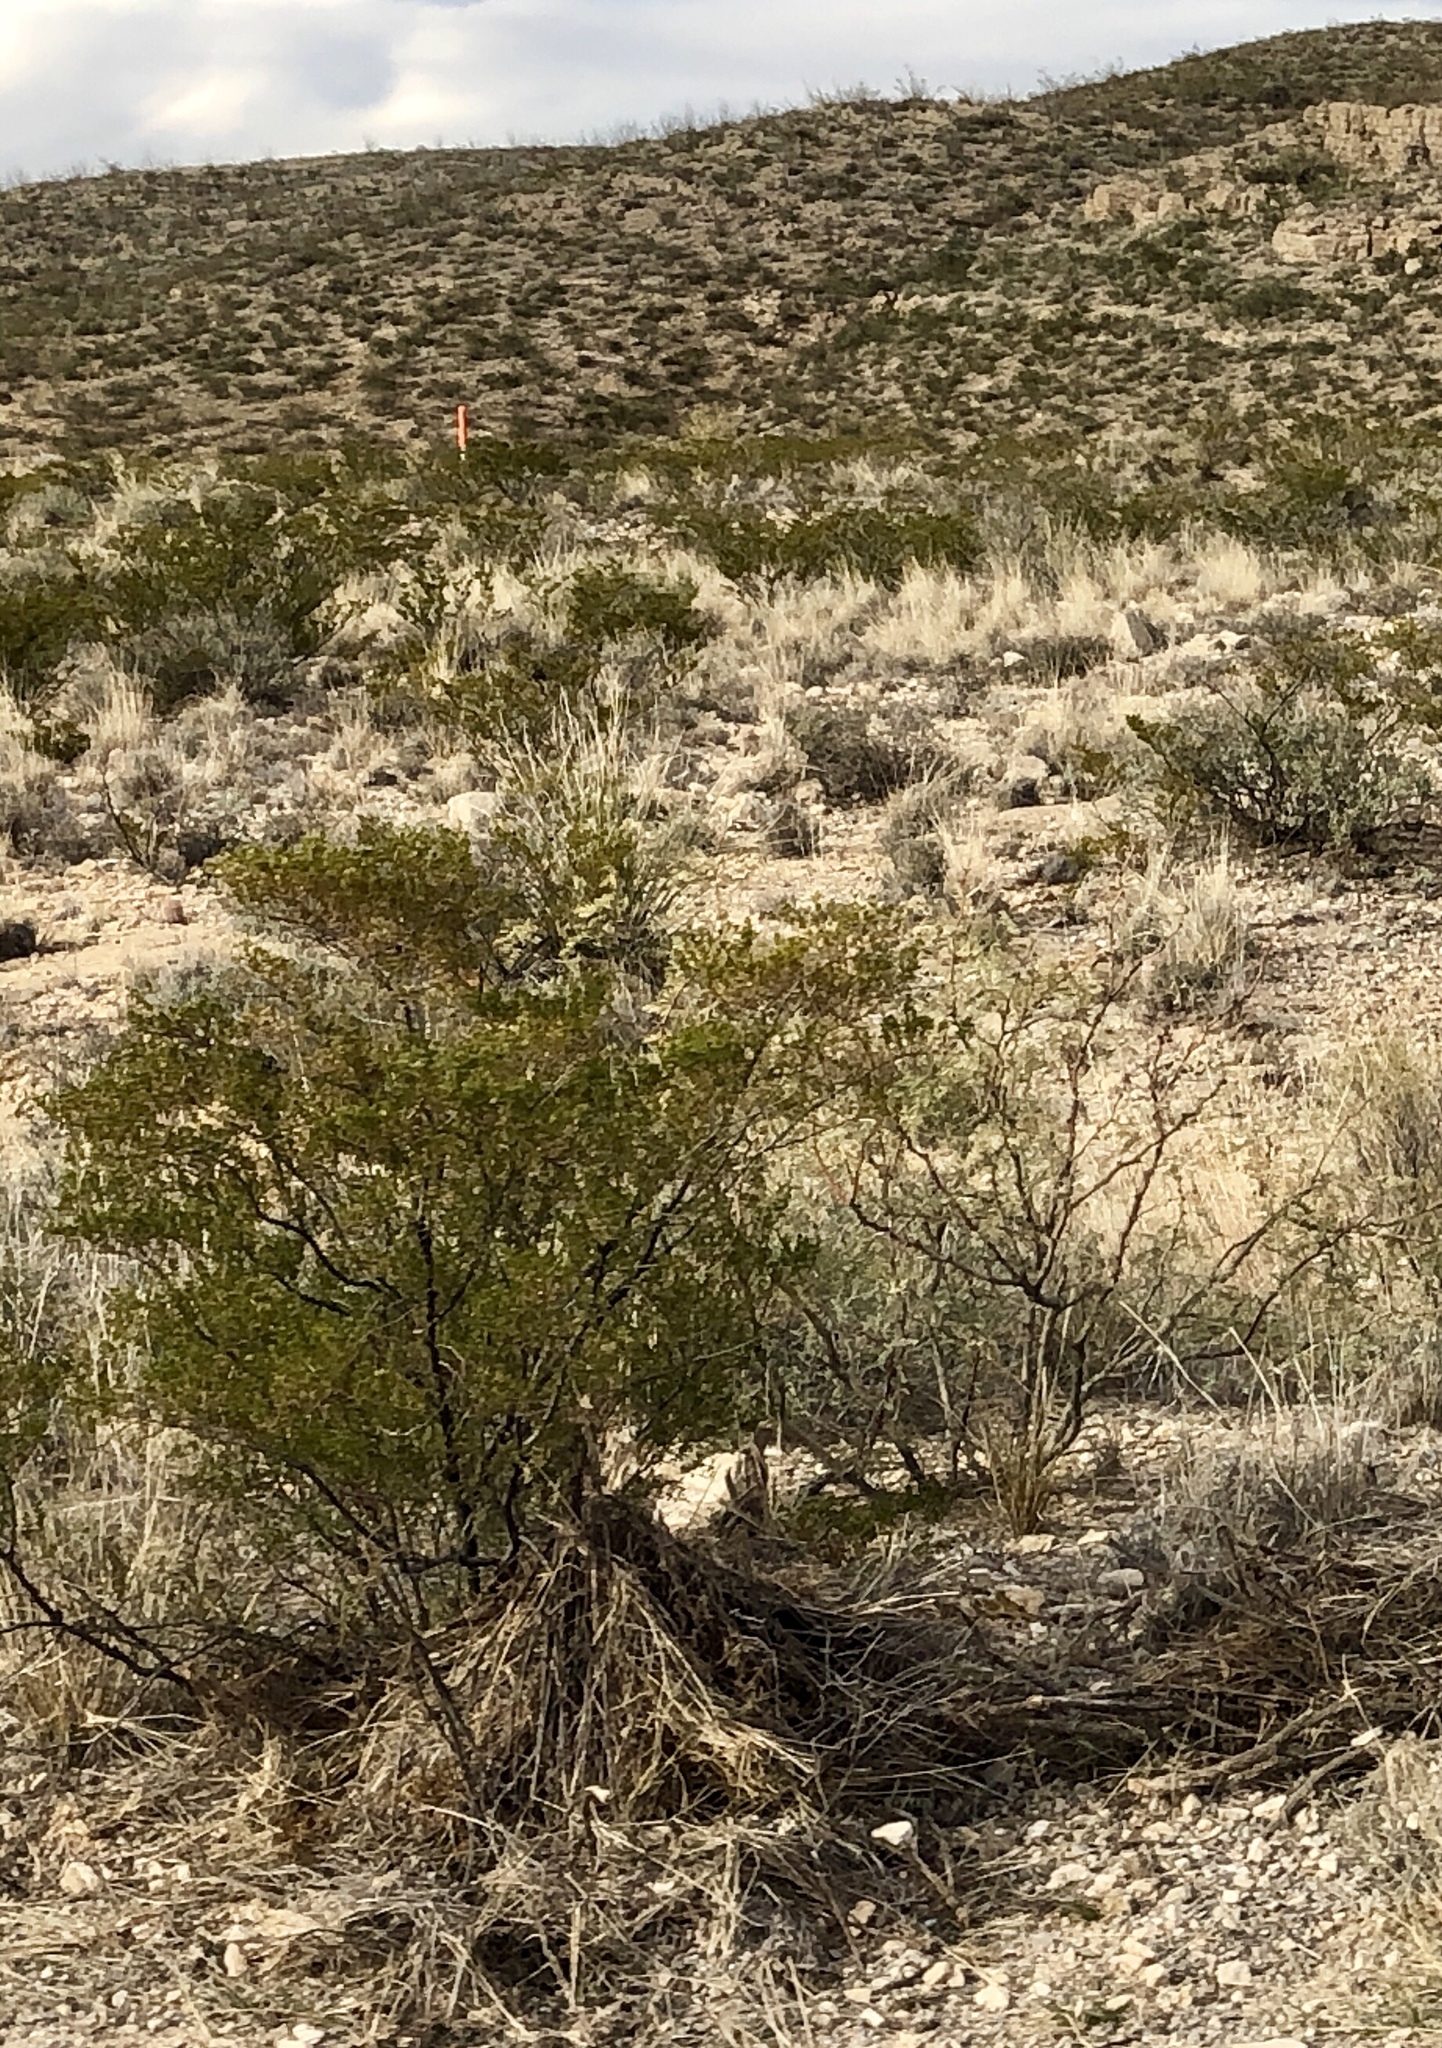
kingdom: Plantae
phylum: Tracheophyta
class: Magnoliopsida
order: Zygophyllales
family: Zygophyllaceae
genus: Larrea
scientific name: Larrea tridentata
